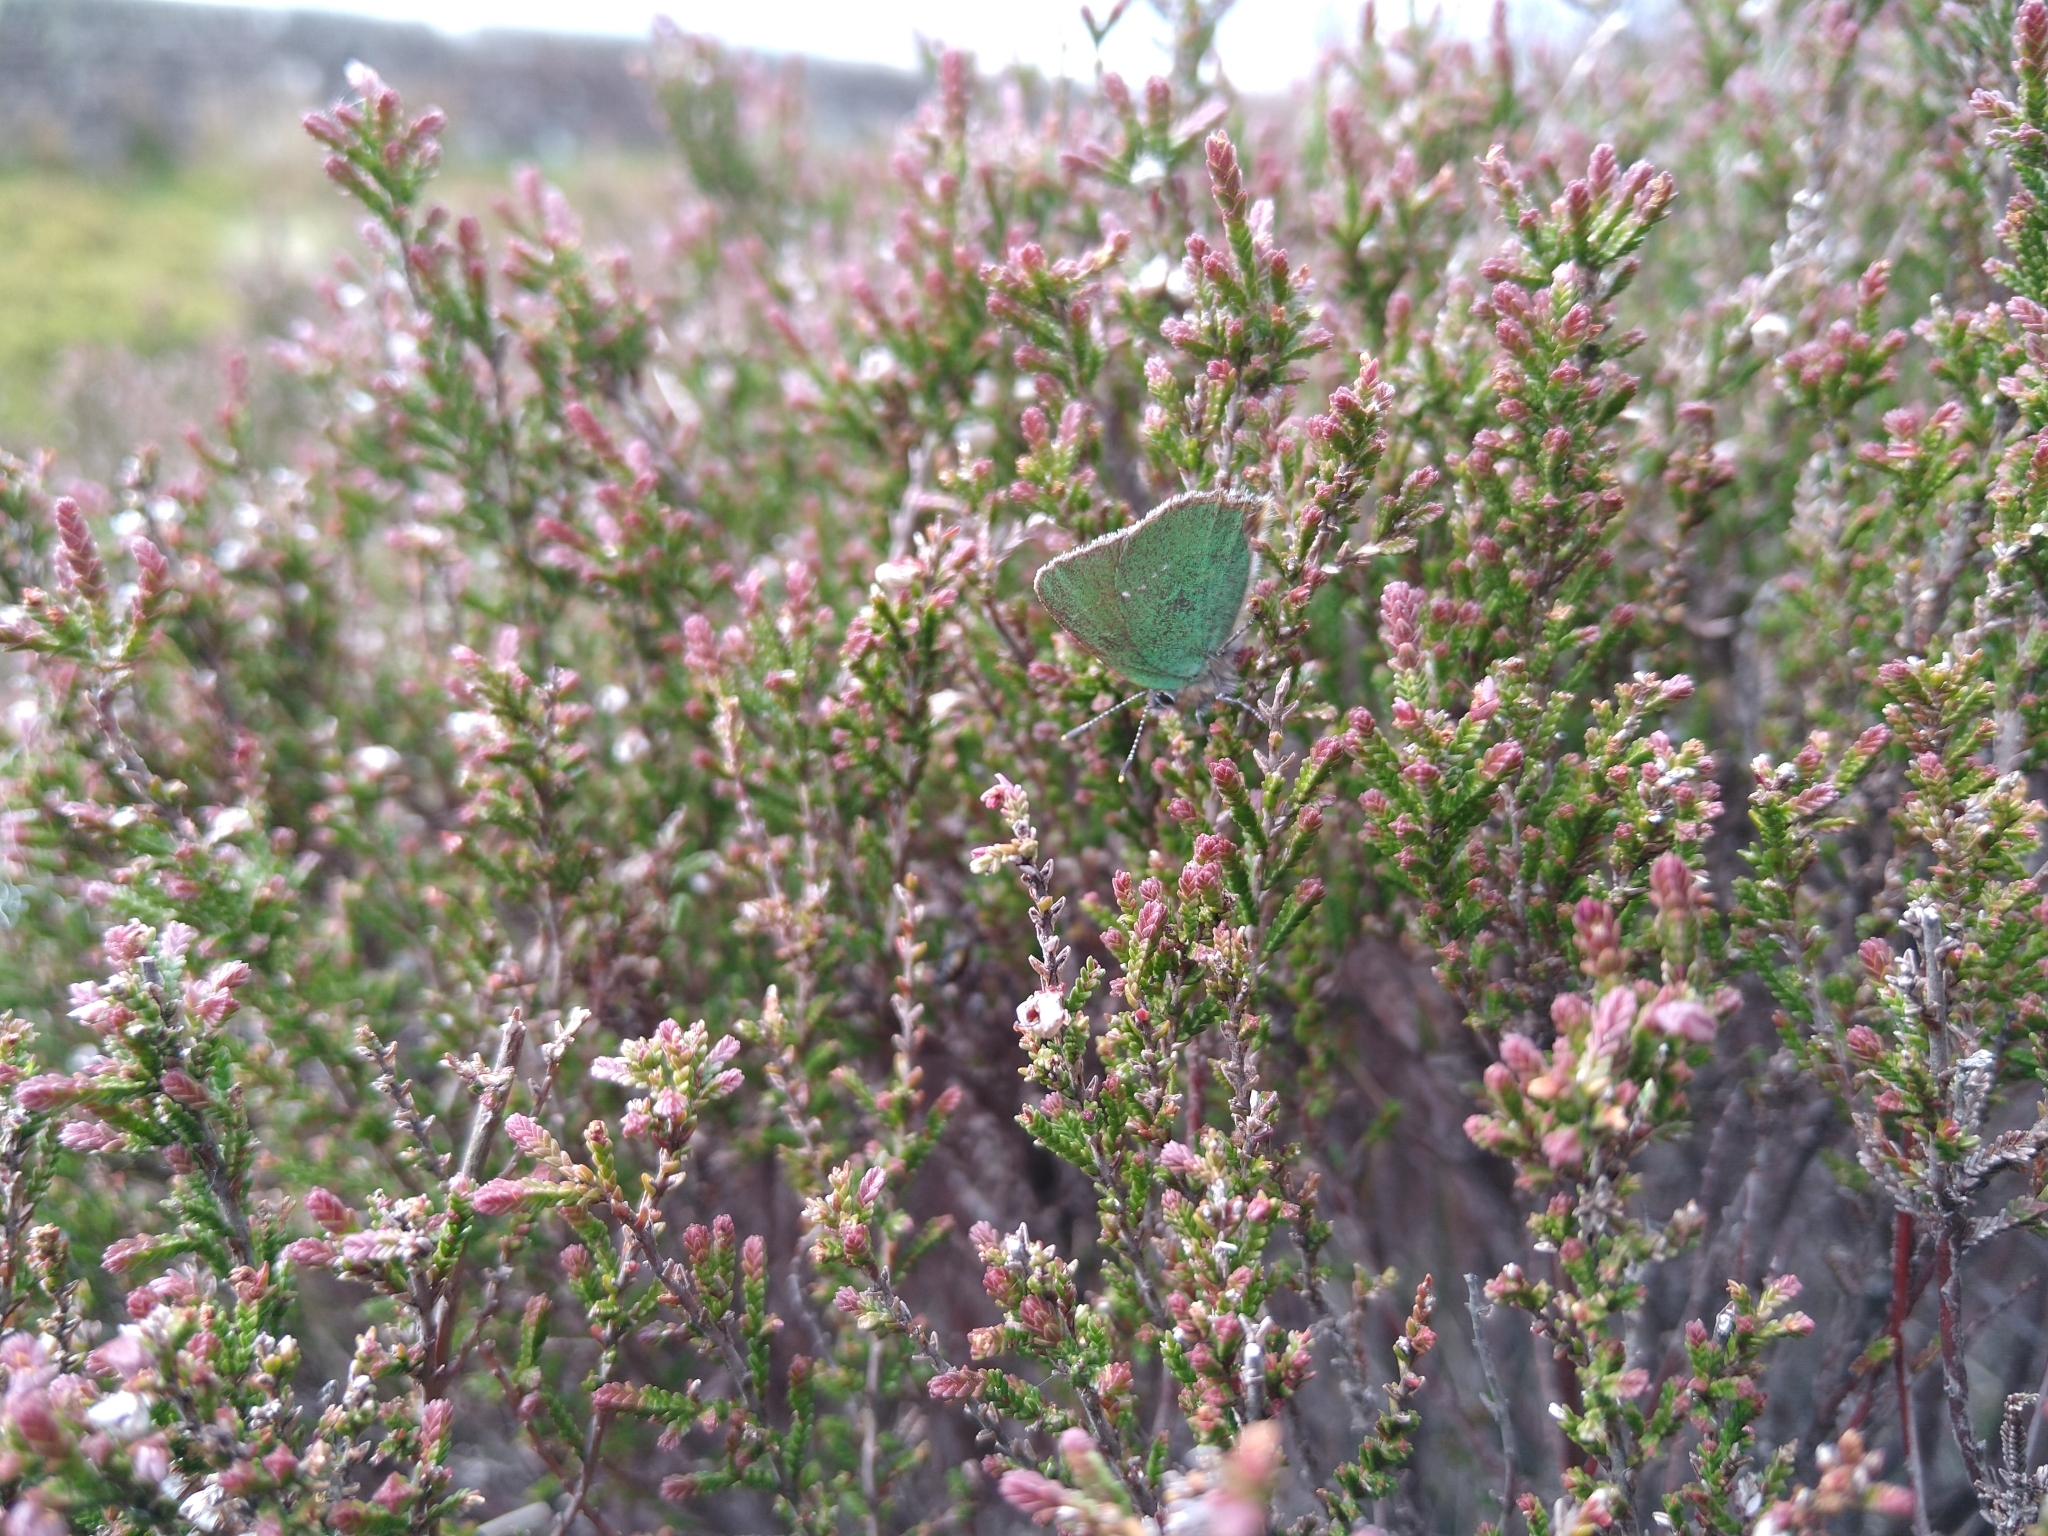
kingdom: Animalia
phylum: Arthropoda
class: Insecta
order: Lepidoptera
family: Lycaenidae
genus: Callophrys
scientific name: Callophrys rubi
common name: Green hairstreak
